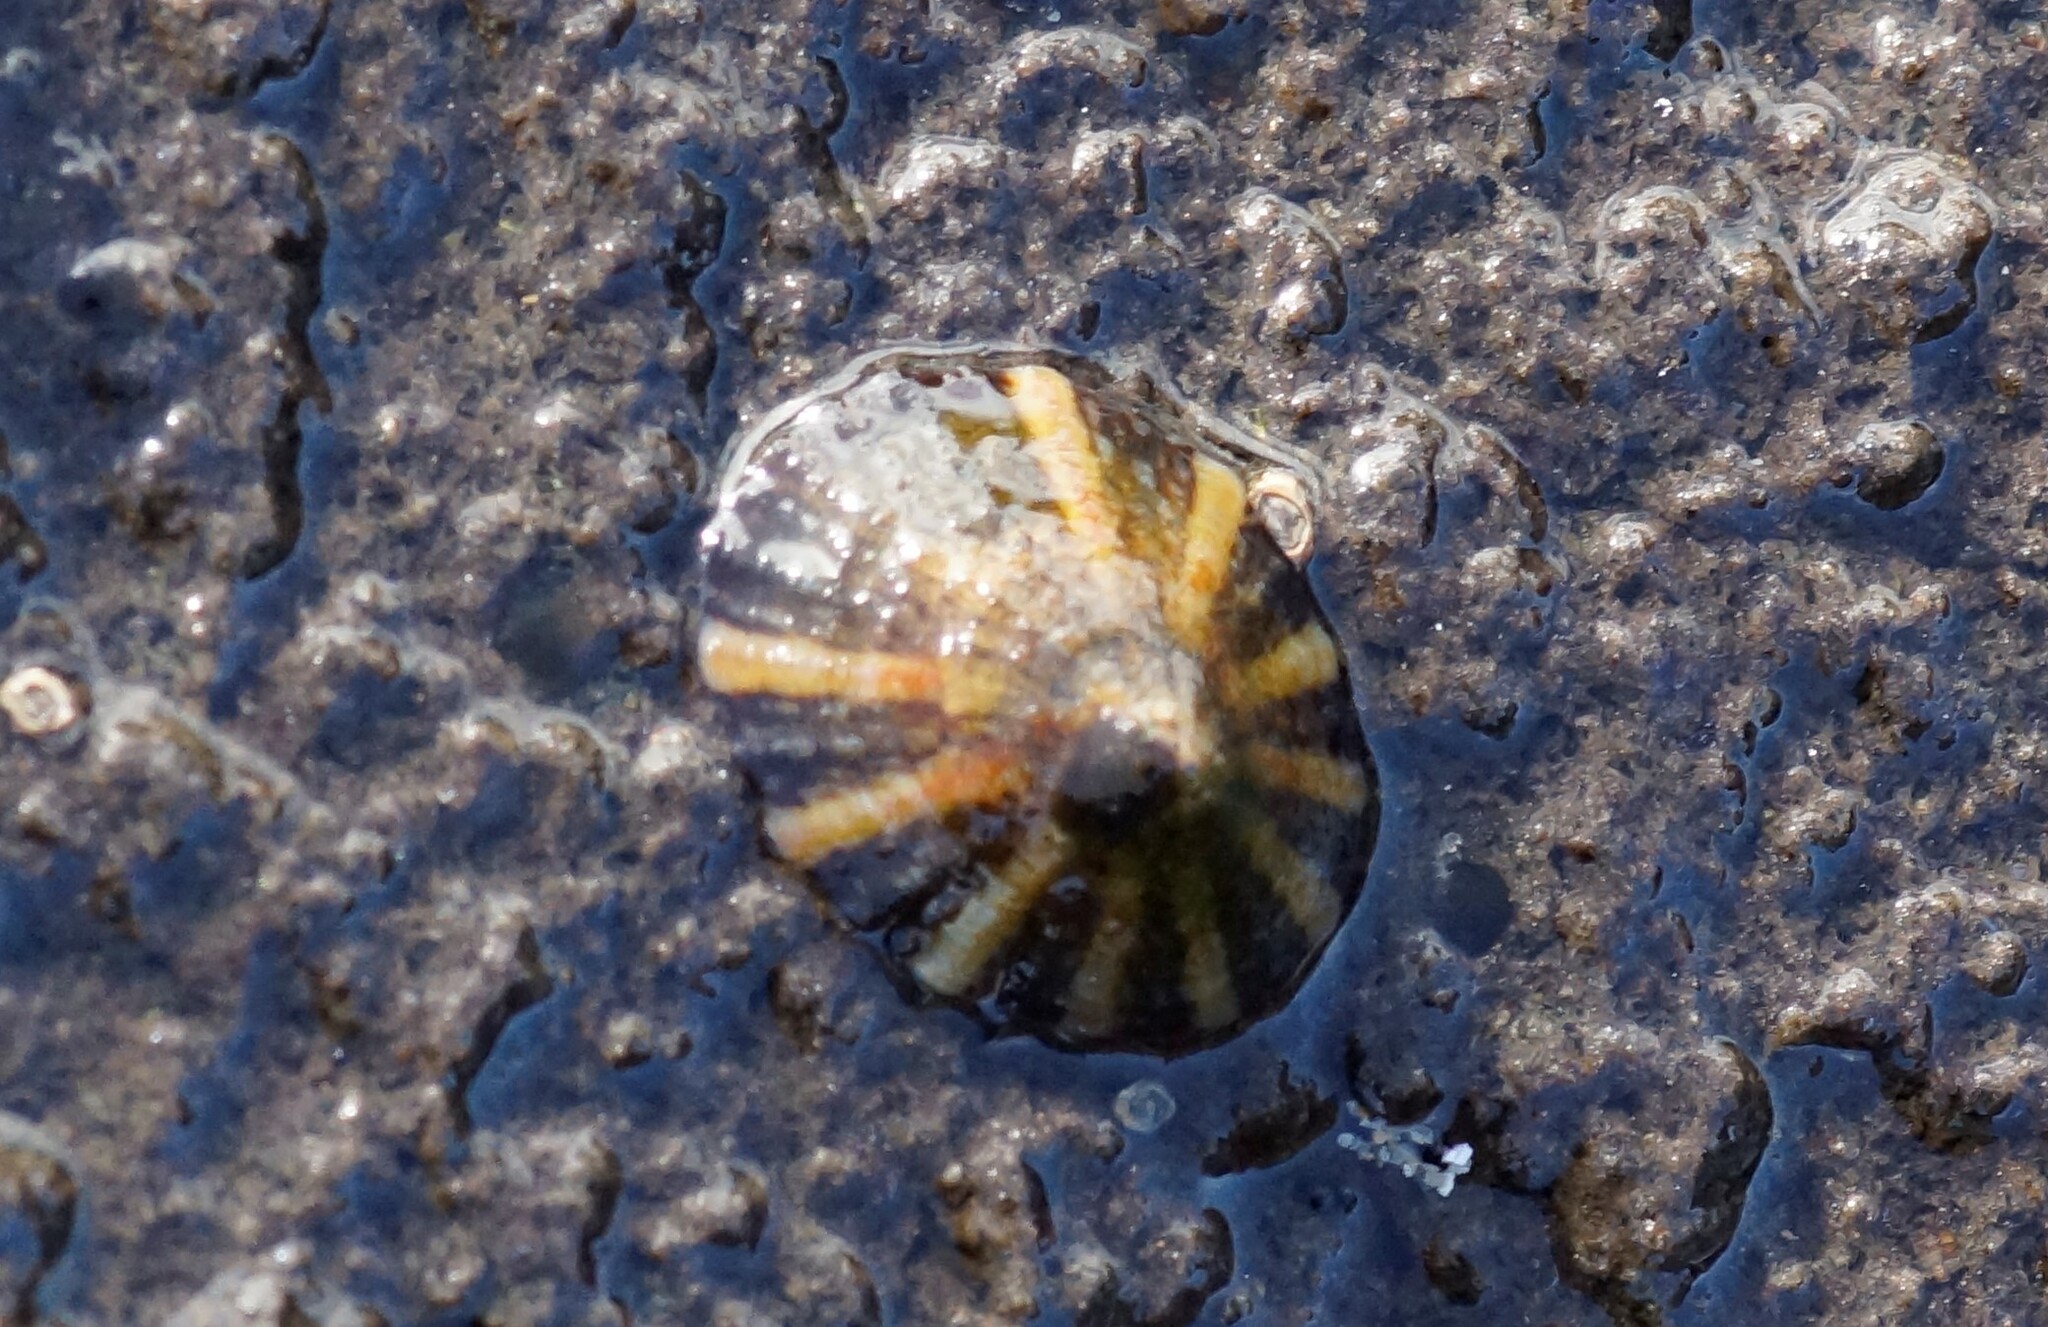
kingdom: Animalia
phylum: Mollusca
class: Gastropoda
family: Nacellidae
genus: Cellana
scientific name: Cellana tramoserica
